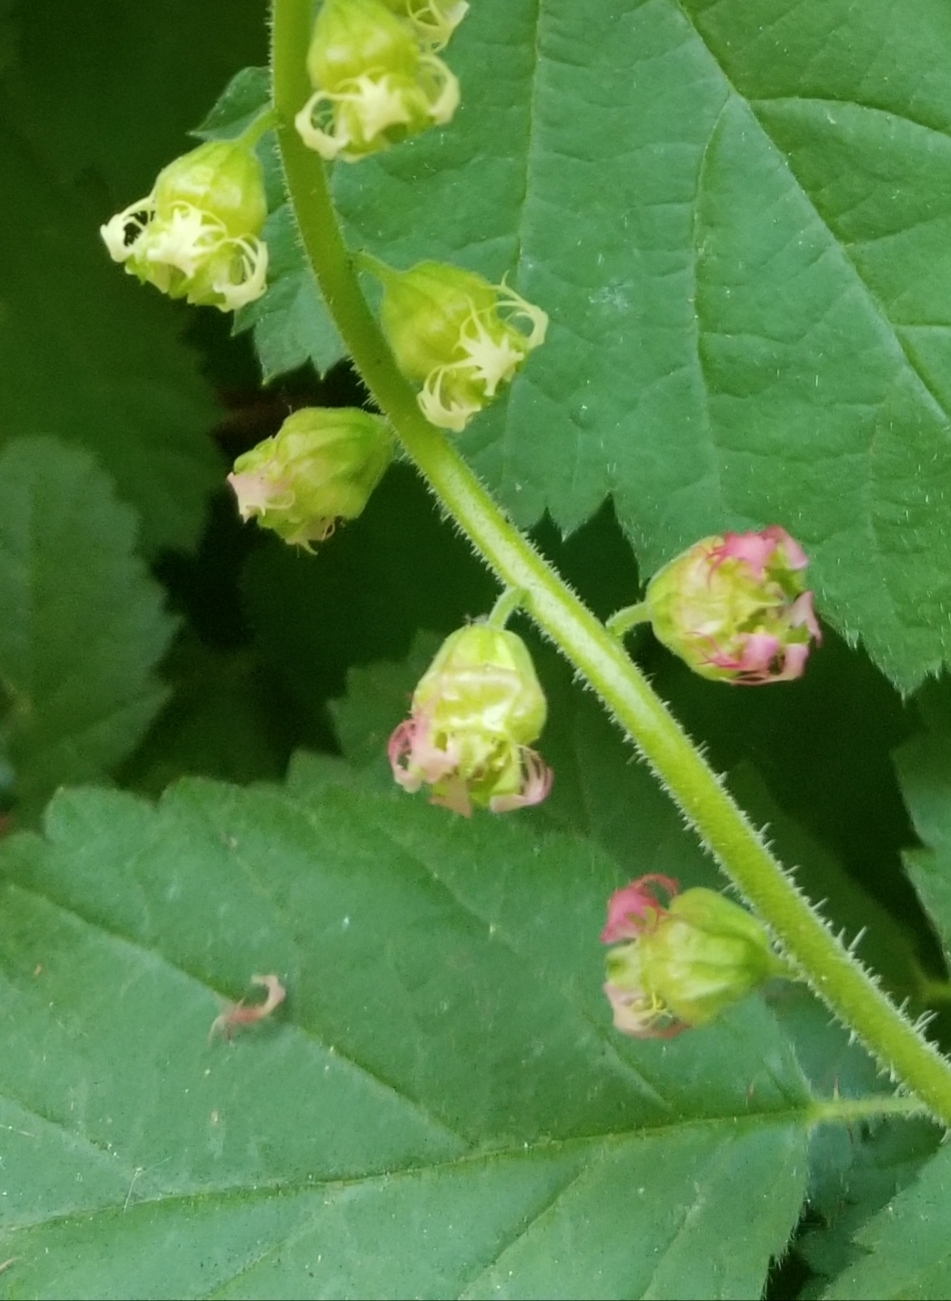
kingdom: Plantae
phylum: Tracheophyta
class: Magnoliopsida
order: Saxifragales
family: Saxifragaceae
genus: Tellima
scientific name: Tellima grandiflora
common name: Fringecups
